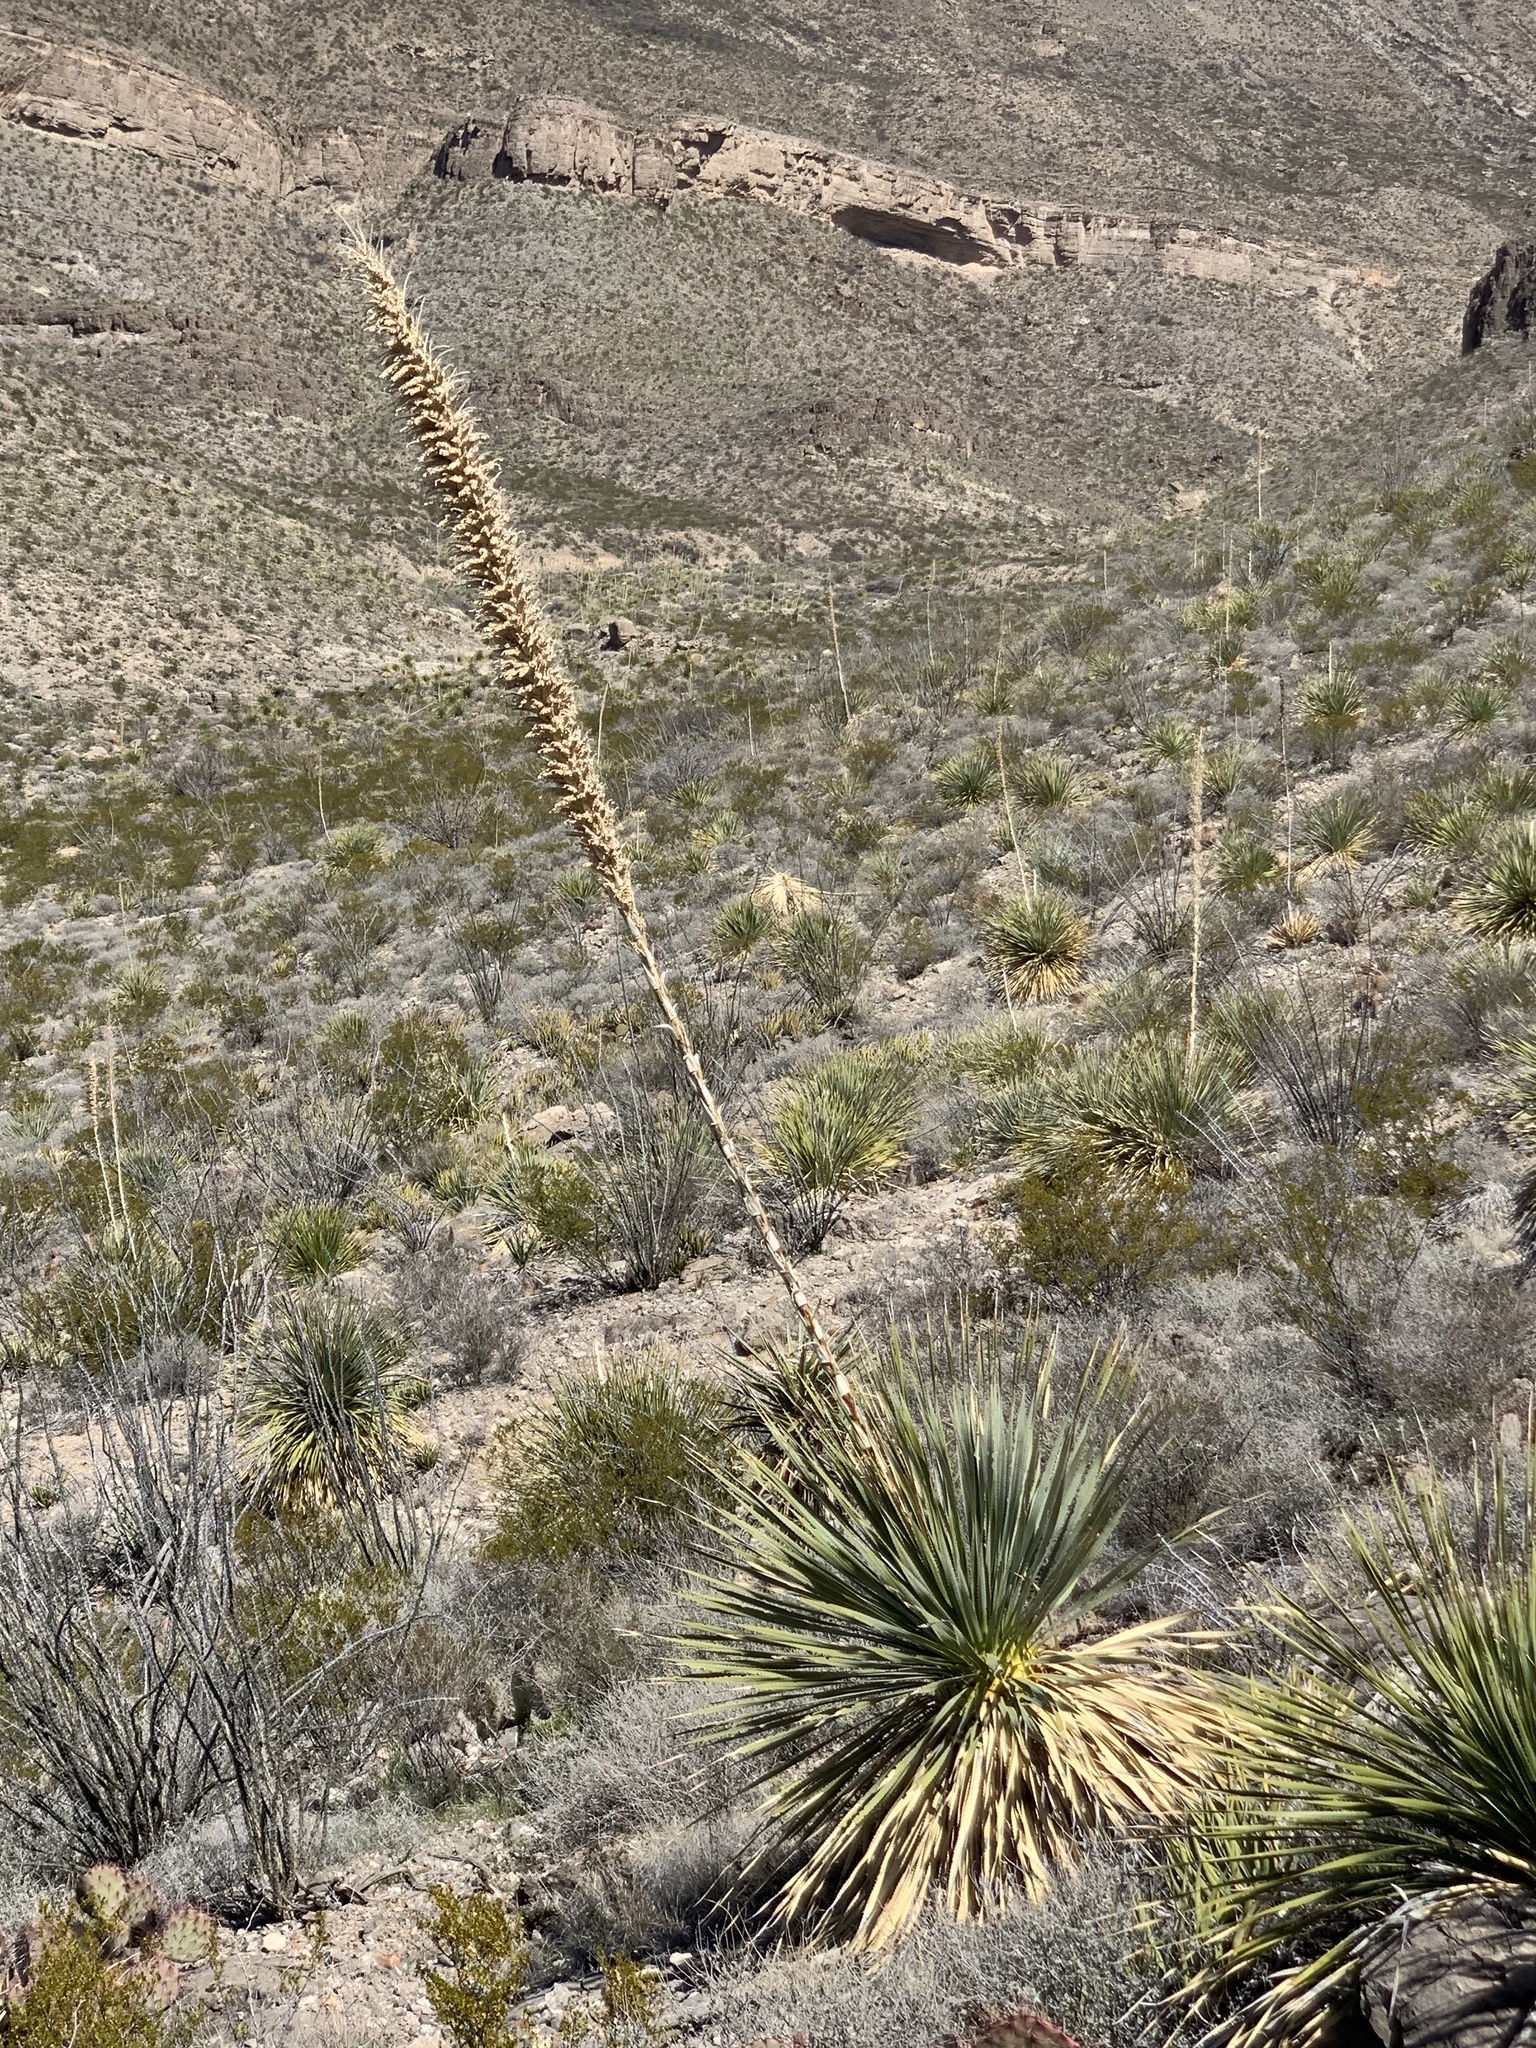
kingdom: Plantae
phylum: Tracheophyta
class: Liliopsida
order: Asparagales
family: Asparagaceae
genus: Dasylirion
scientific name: Dasylirion wheeleri
